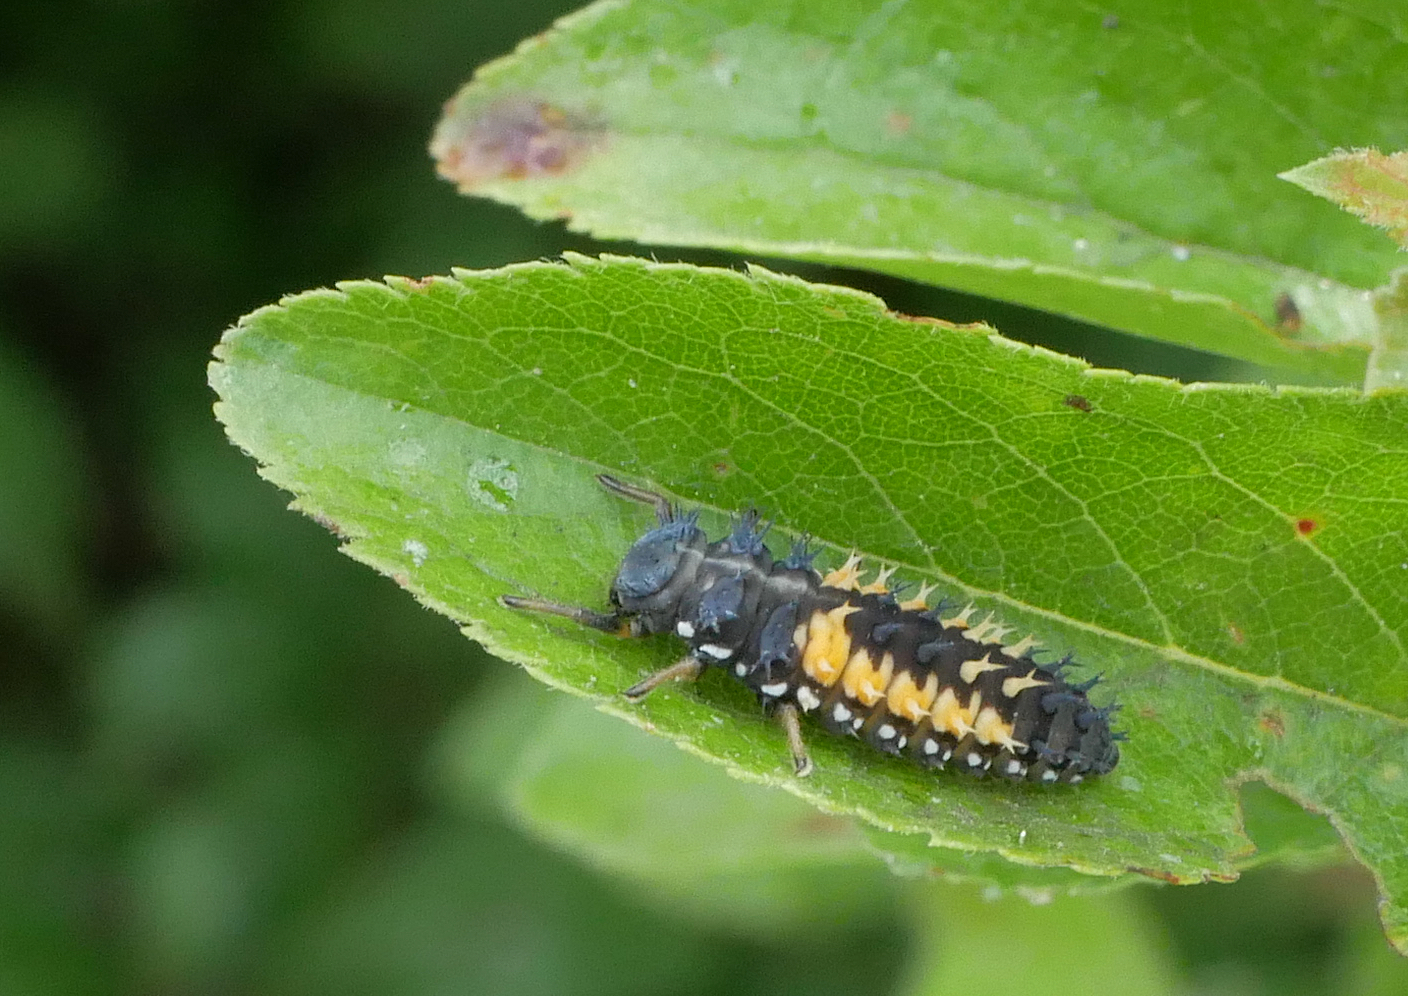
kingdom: Animalia
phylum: Arthropoda
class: Insecta
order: Coleoptera
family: Coccinellidae
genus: Harmonia
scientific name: Harmonia axyridis
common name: Harlequin ladybird
